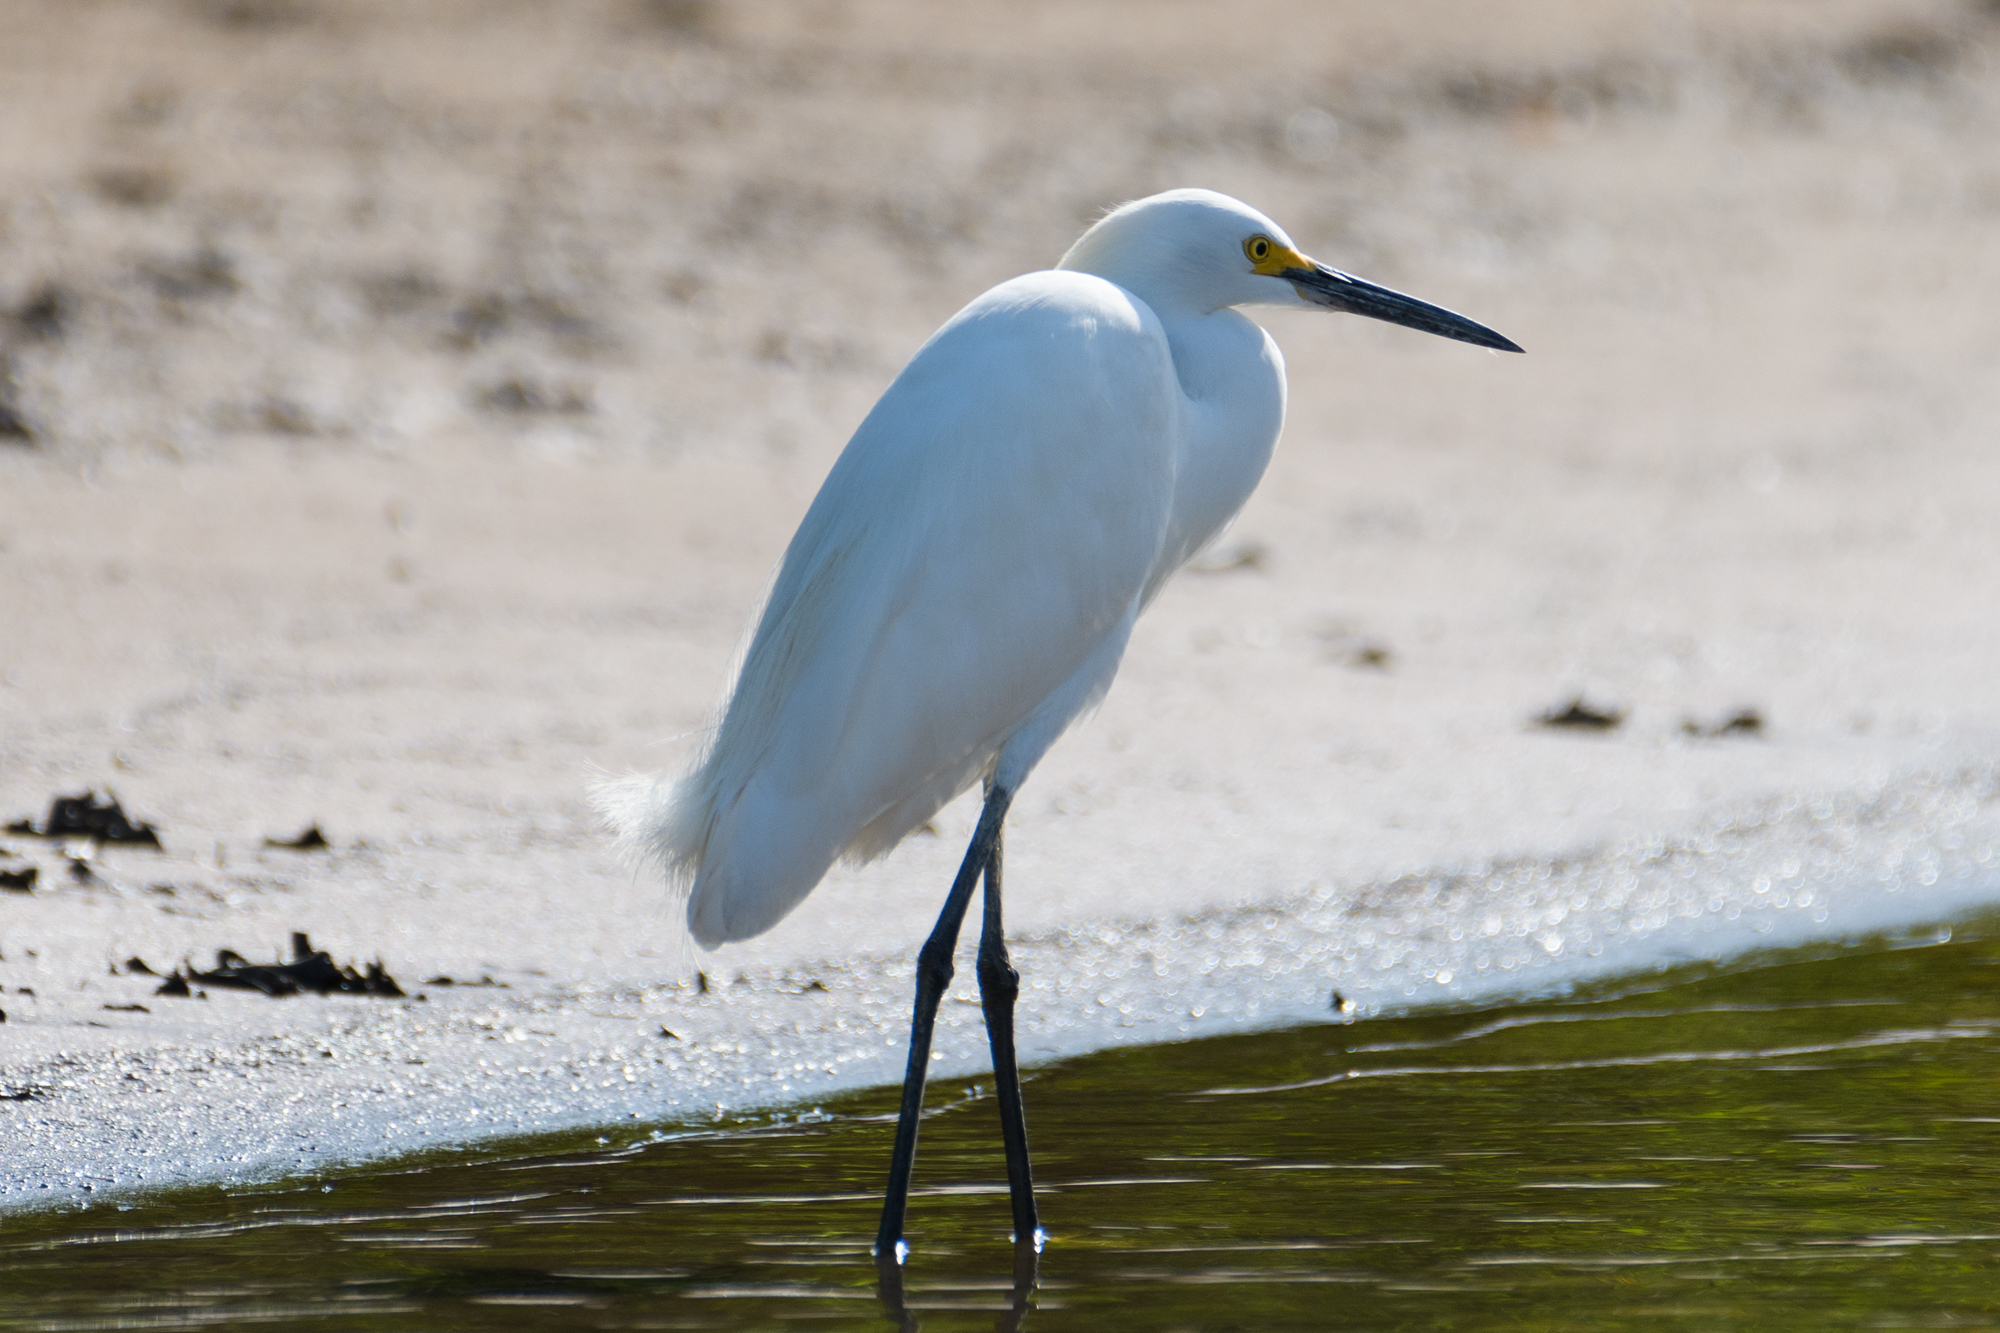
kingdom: Animalia
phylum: Chordata
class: Aves
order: Pelecaniformes
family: Ardeidae
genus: Egretta
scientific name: Egretta thula
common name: Snowy egret
